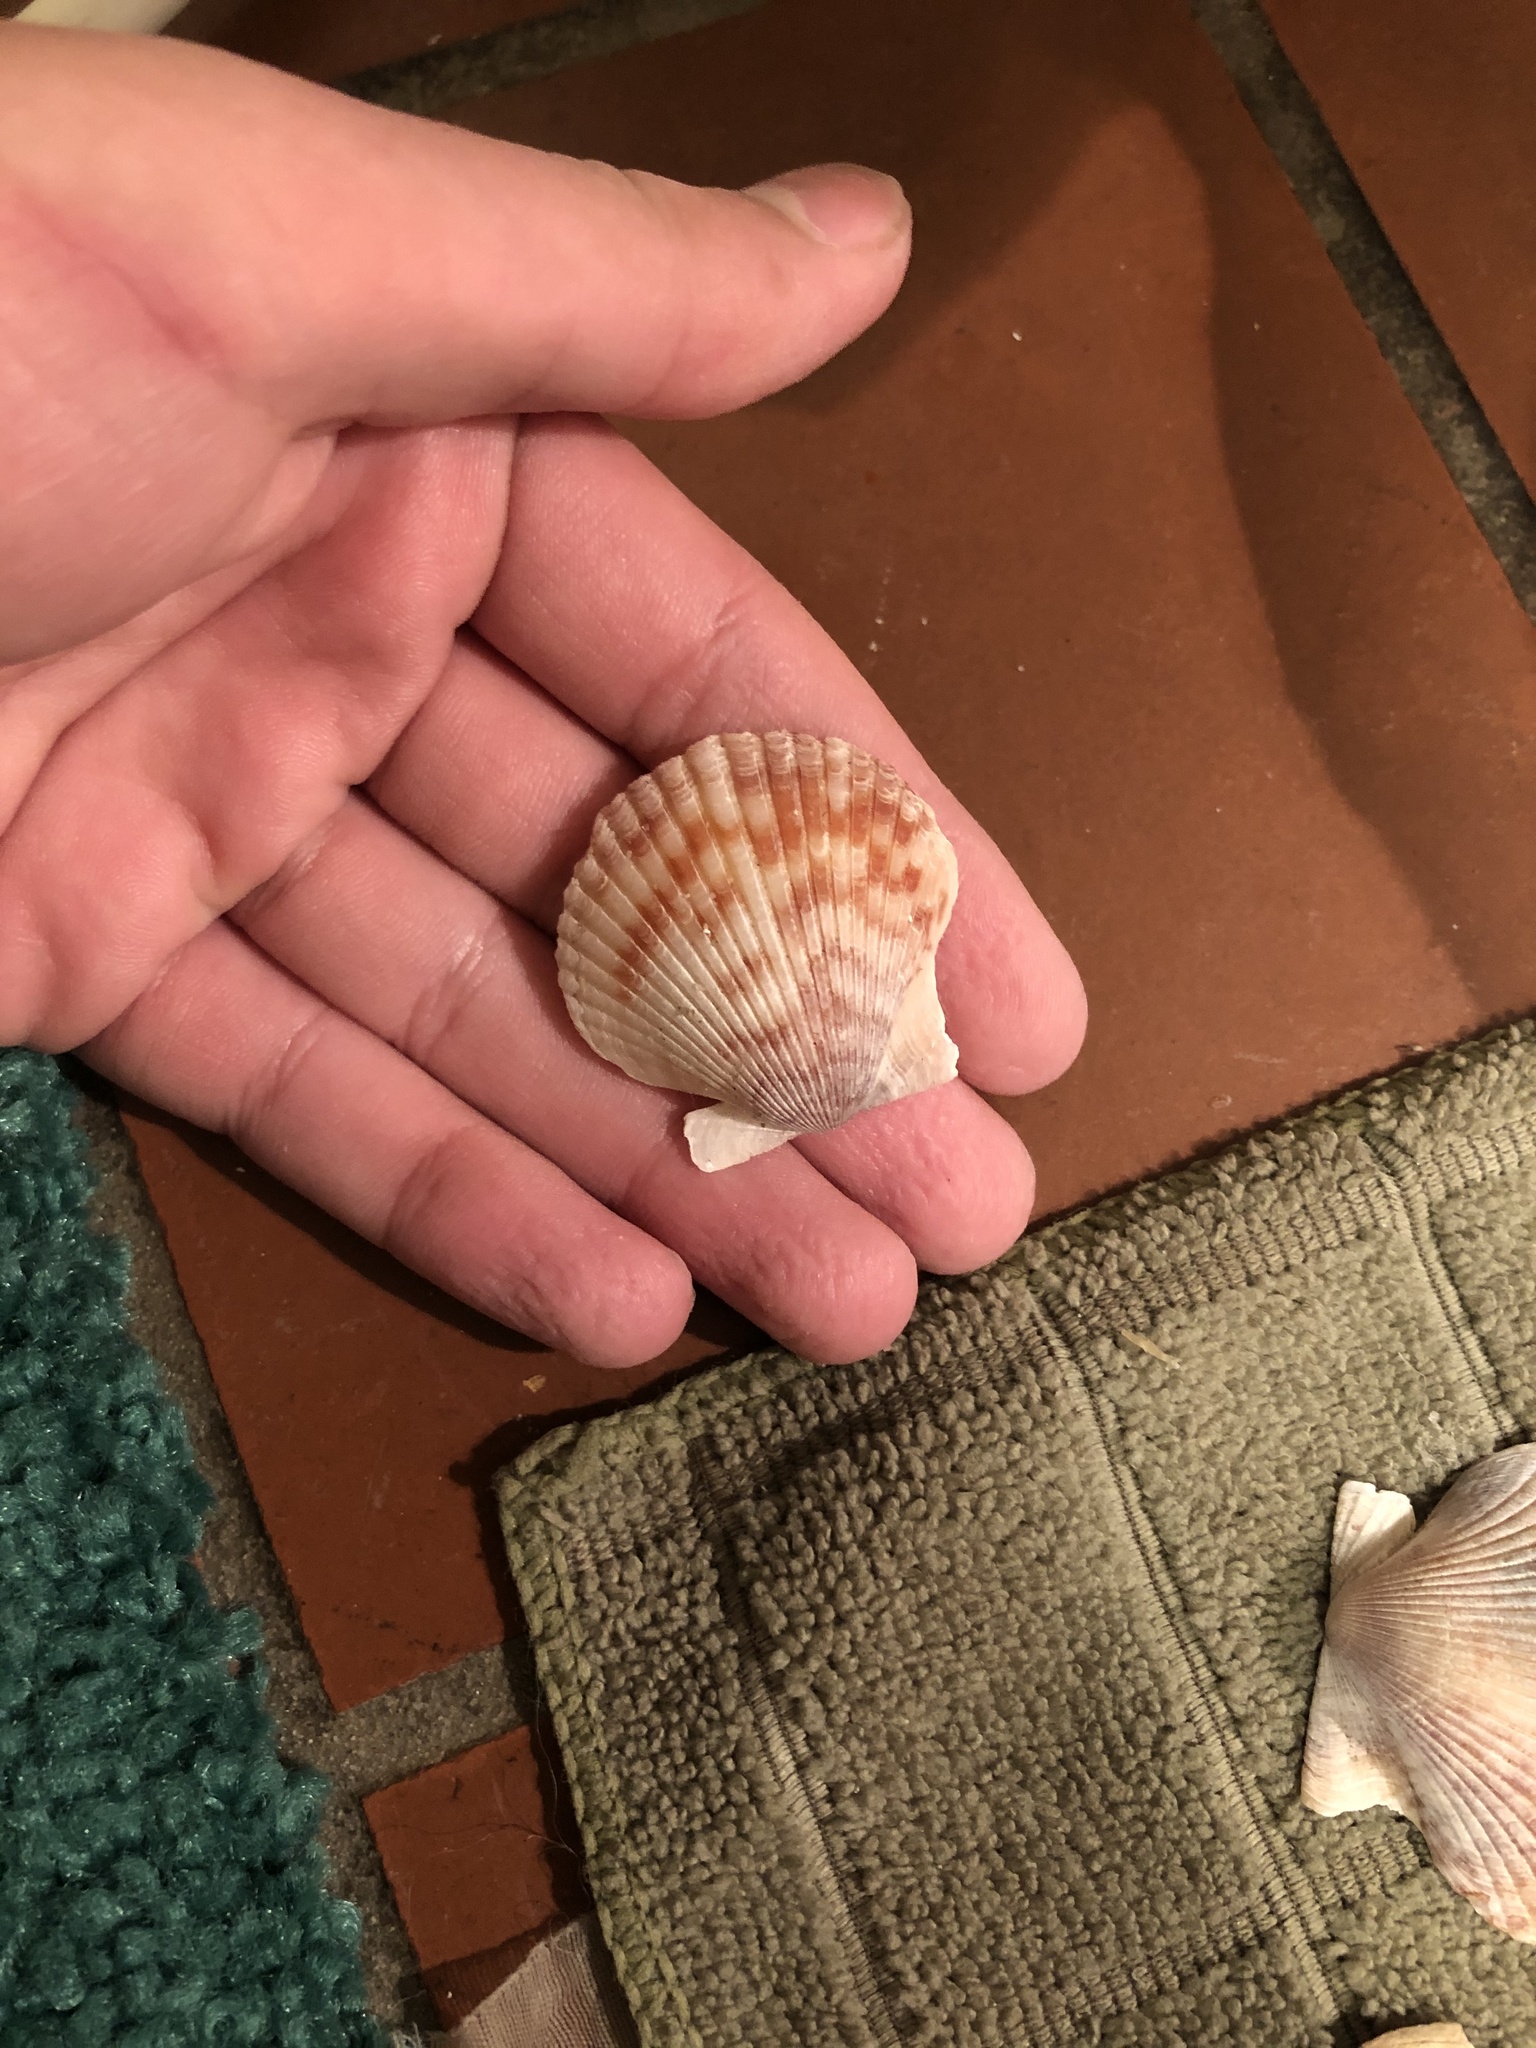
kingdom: Animalia
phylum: Mollusca
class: Bivalvia
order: Pectinida
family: Pectinidae
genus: Argopecten
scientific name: Argopecten ventricosus
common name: Catarina scallop
